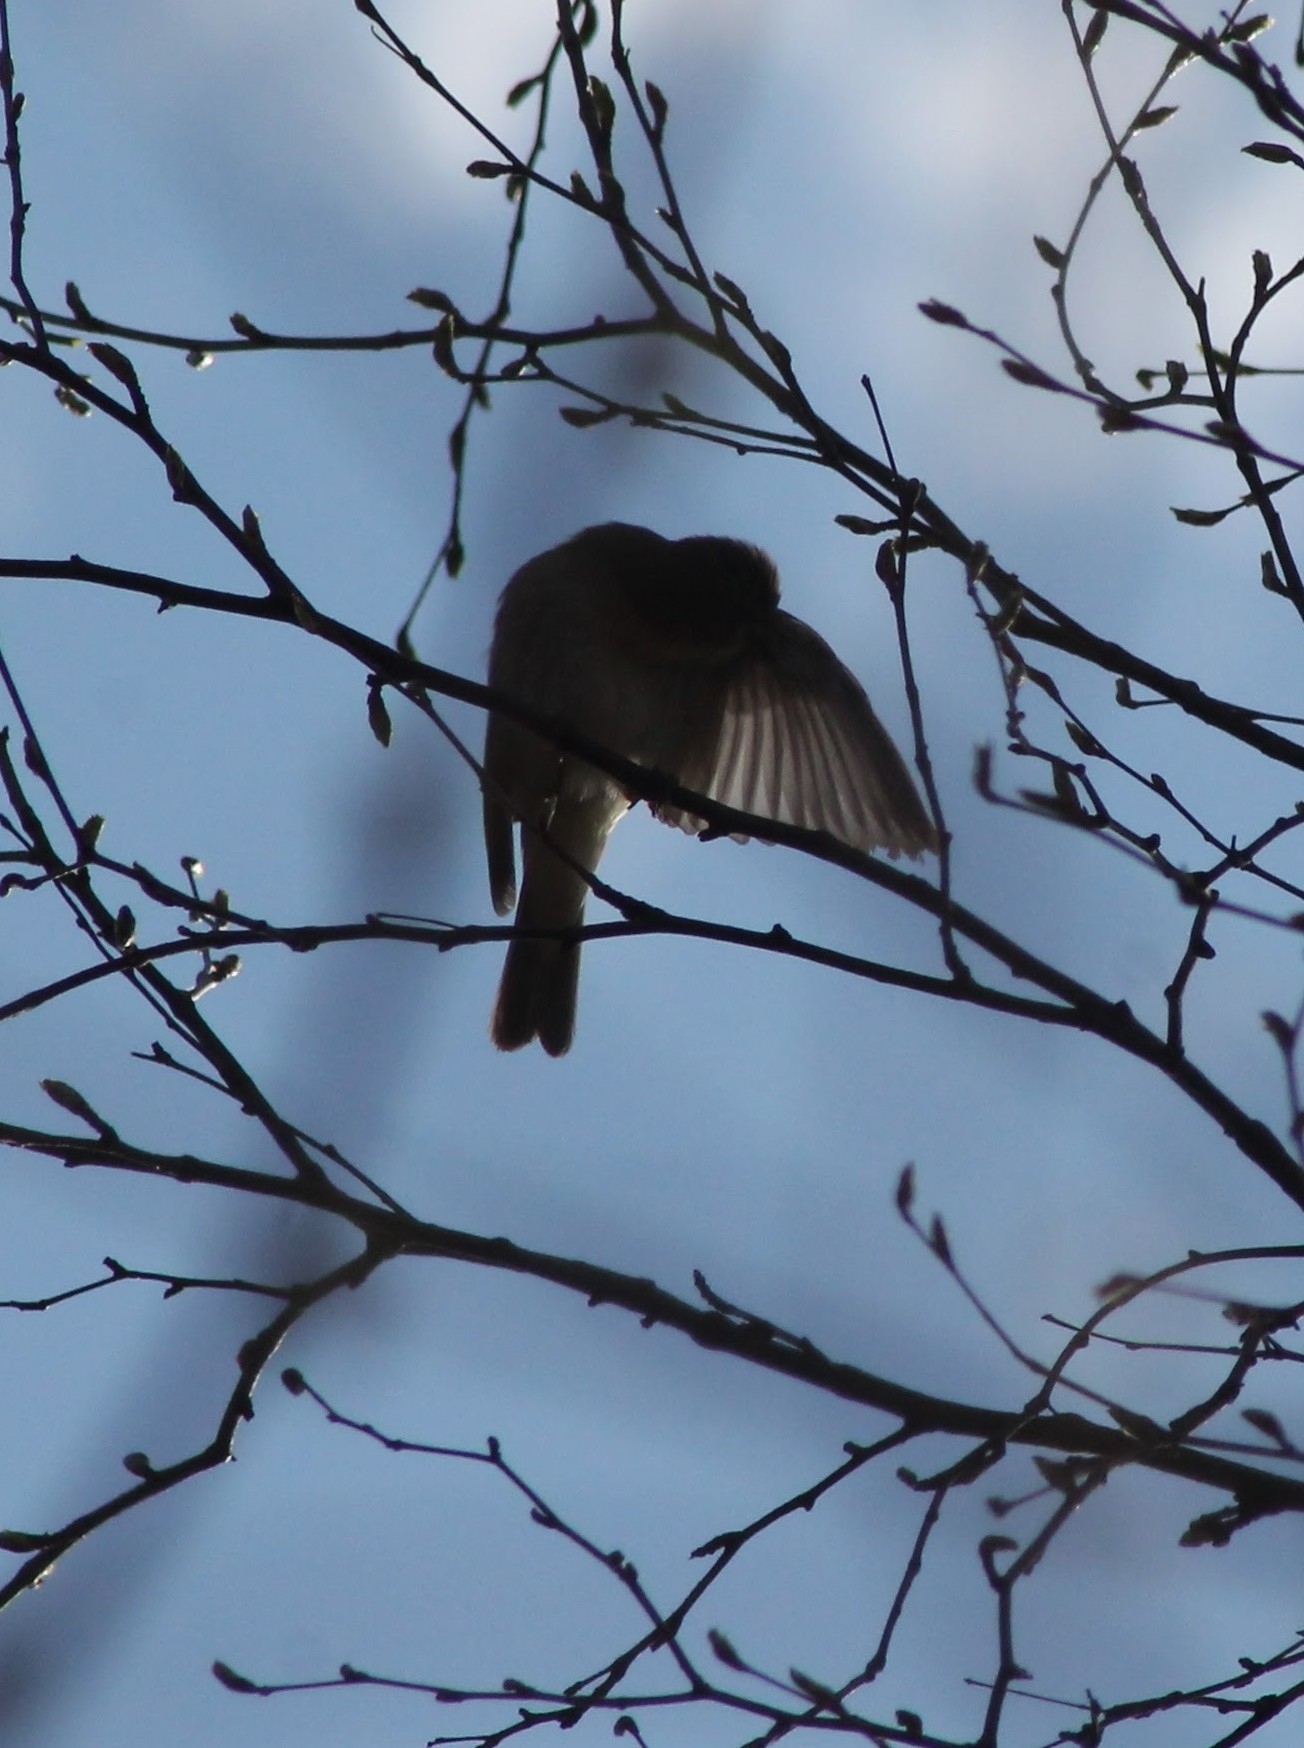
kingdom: Animalia
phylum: Chordata
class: Aves
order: Passeriformes
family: Phylloscopidae
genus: Phylloscopus
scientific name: Phylloscopus trochilus
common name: Willow warbler
